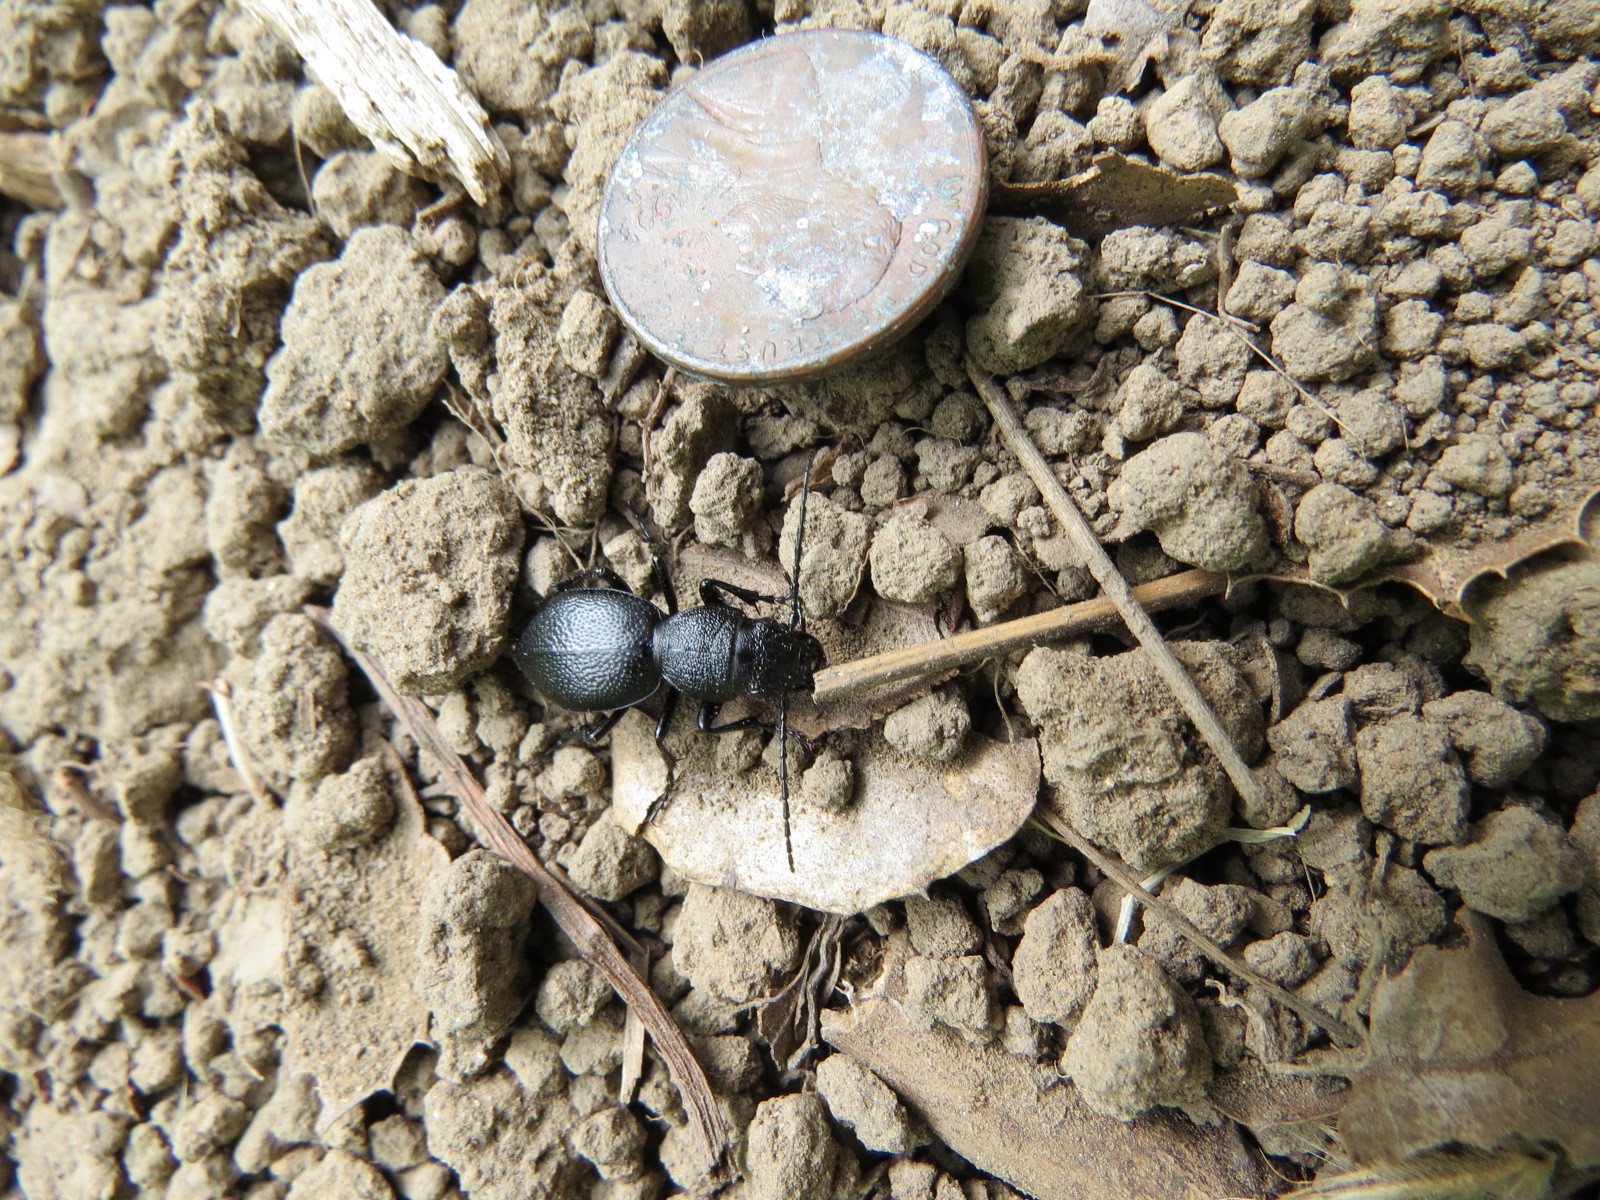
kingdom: Animalia
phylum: Arthropoda
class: Insecta
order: Coleoptera
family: Carabidae
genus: Omus
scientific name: Omus californicus
